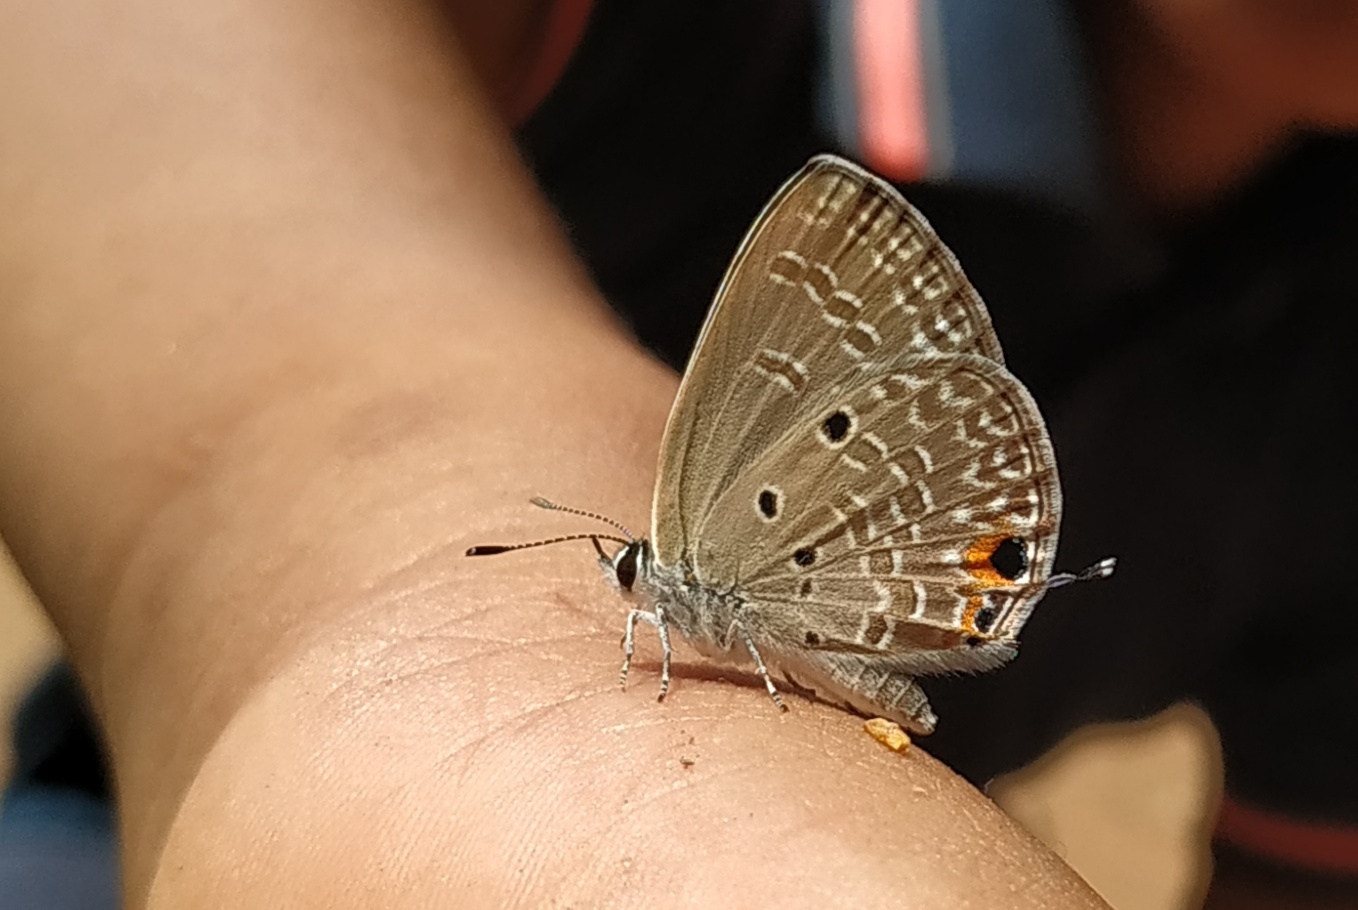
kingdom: Animalia
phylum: Arthropoda
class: Insecta
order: Lepidoptera
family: Lycaenidae
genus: Luthrodes
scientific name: Luthrodes pandava
